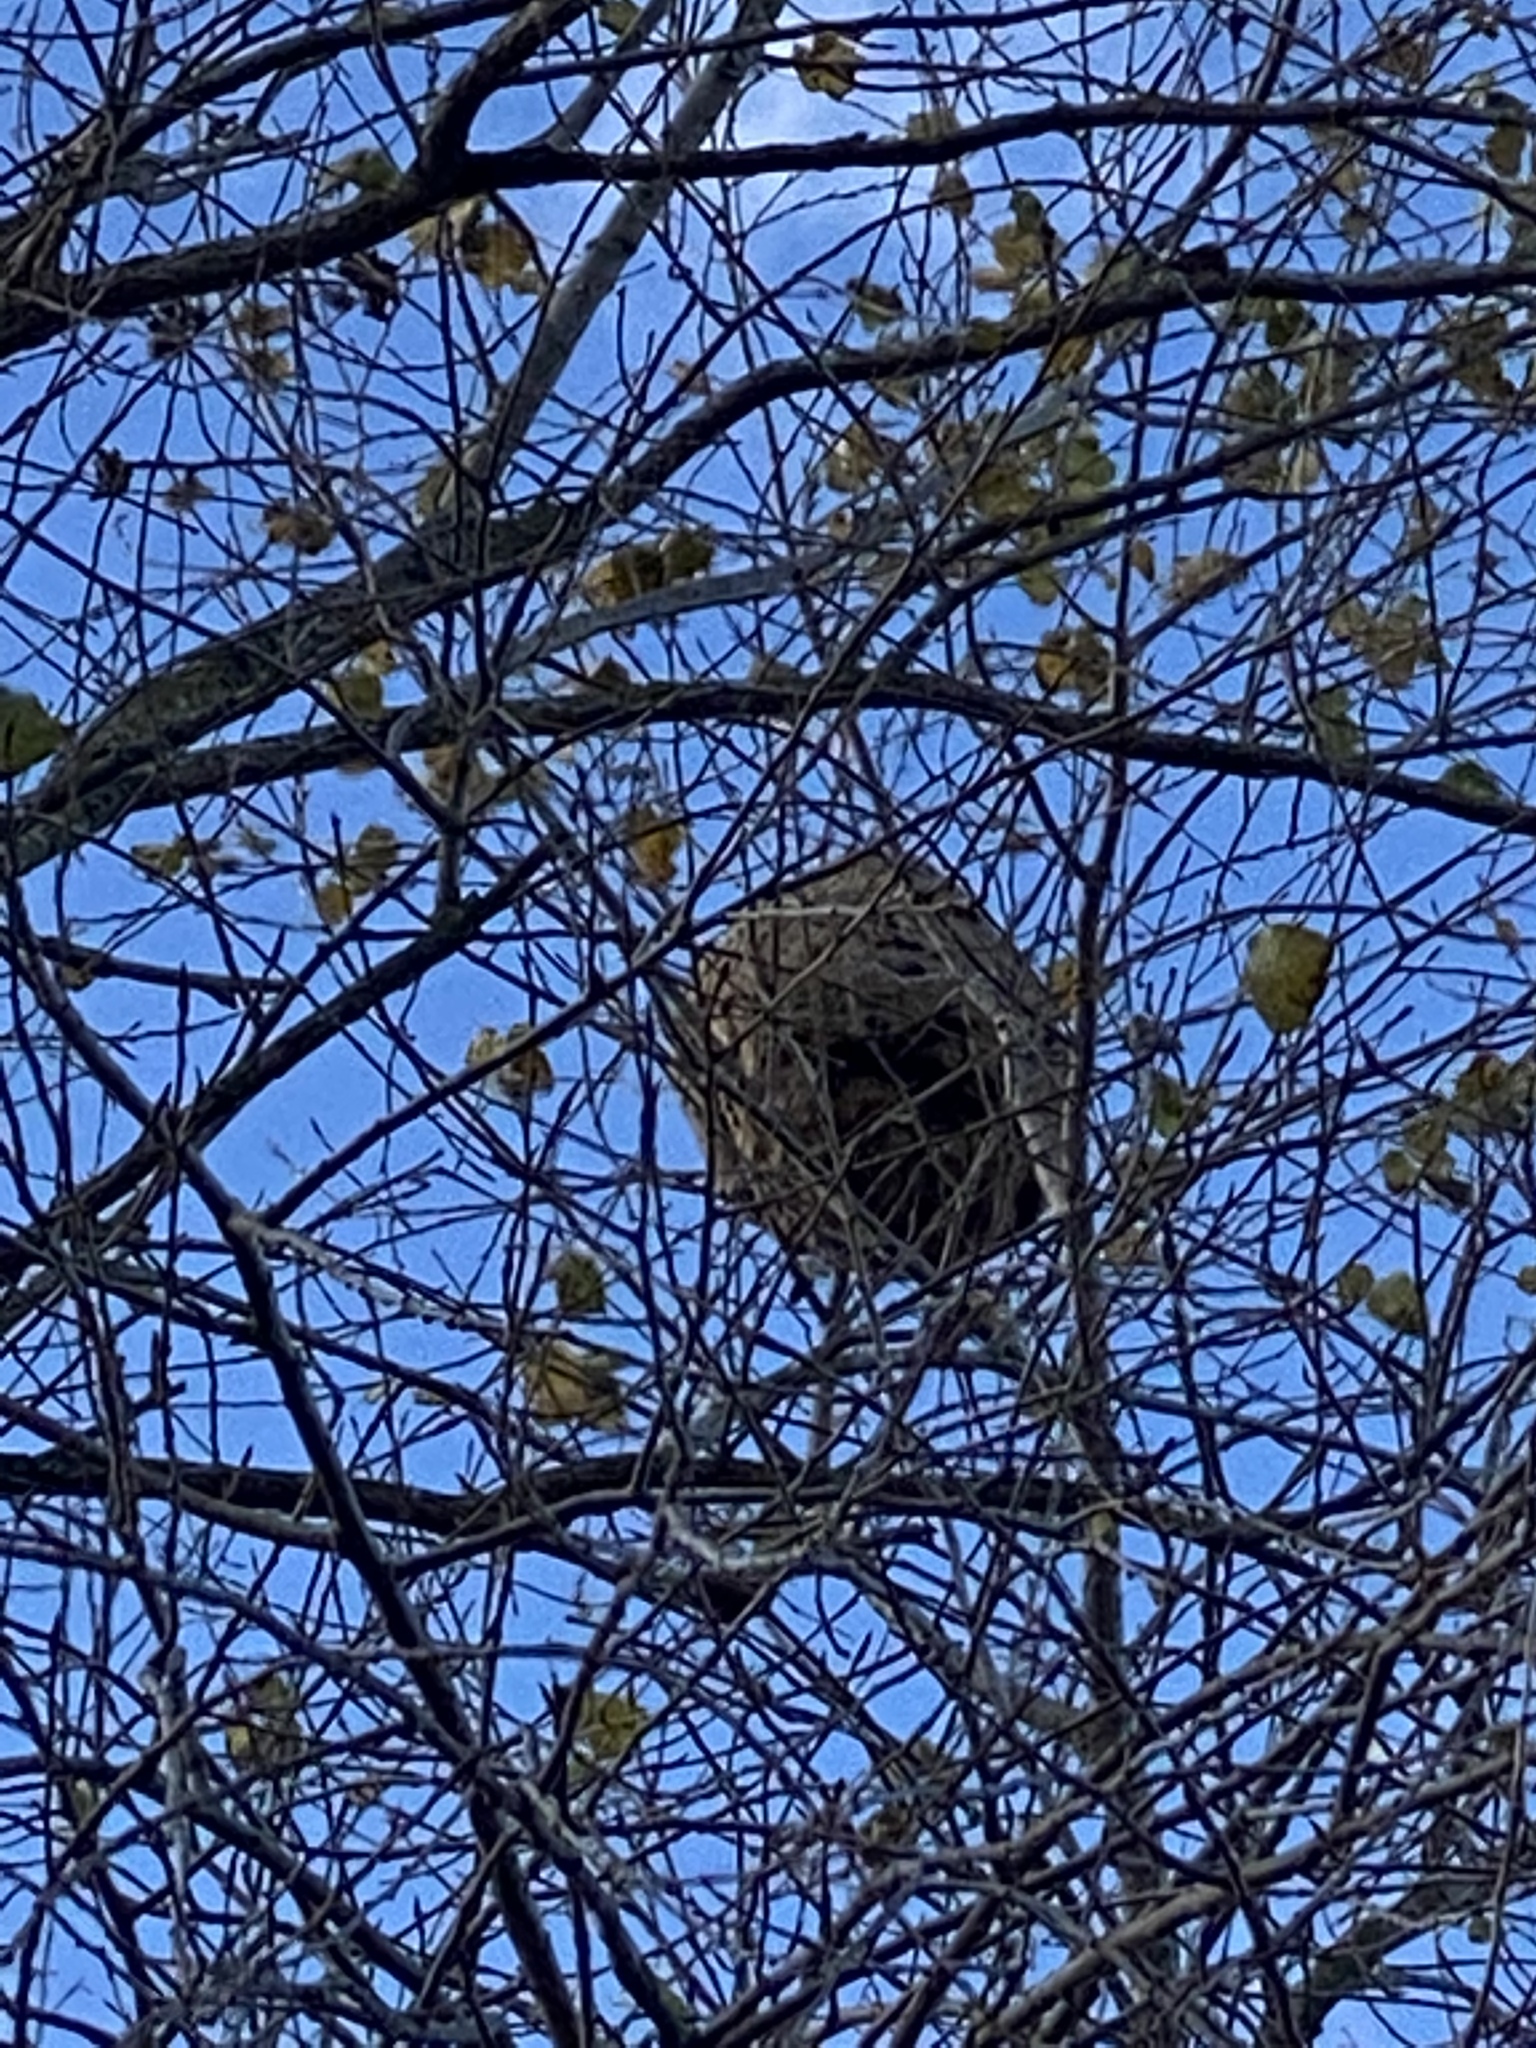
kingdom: Animalia
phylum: Arthropoda
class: Insecta
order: Hymenoptera
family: Vespidae
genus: Vespa
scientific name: Vespa velutina
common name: Asian hornet
